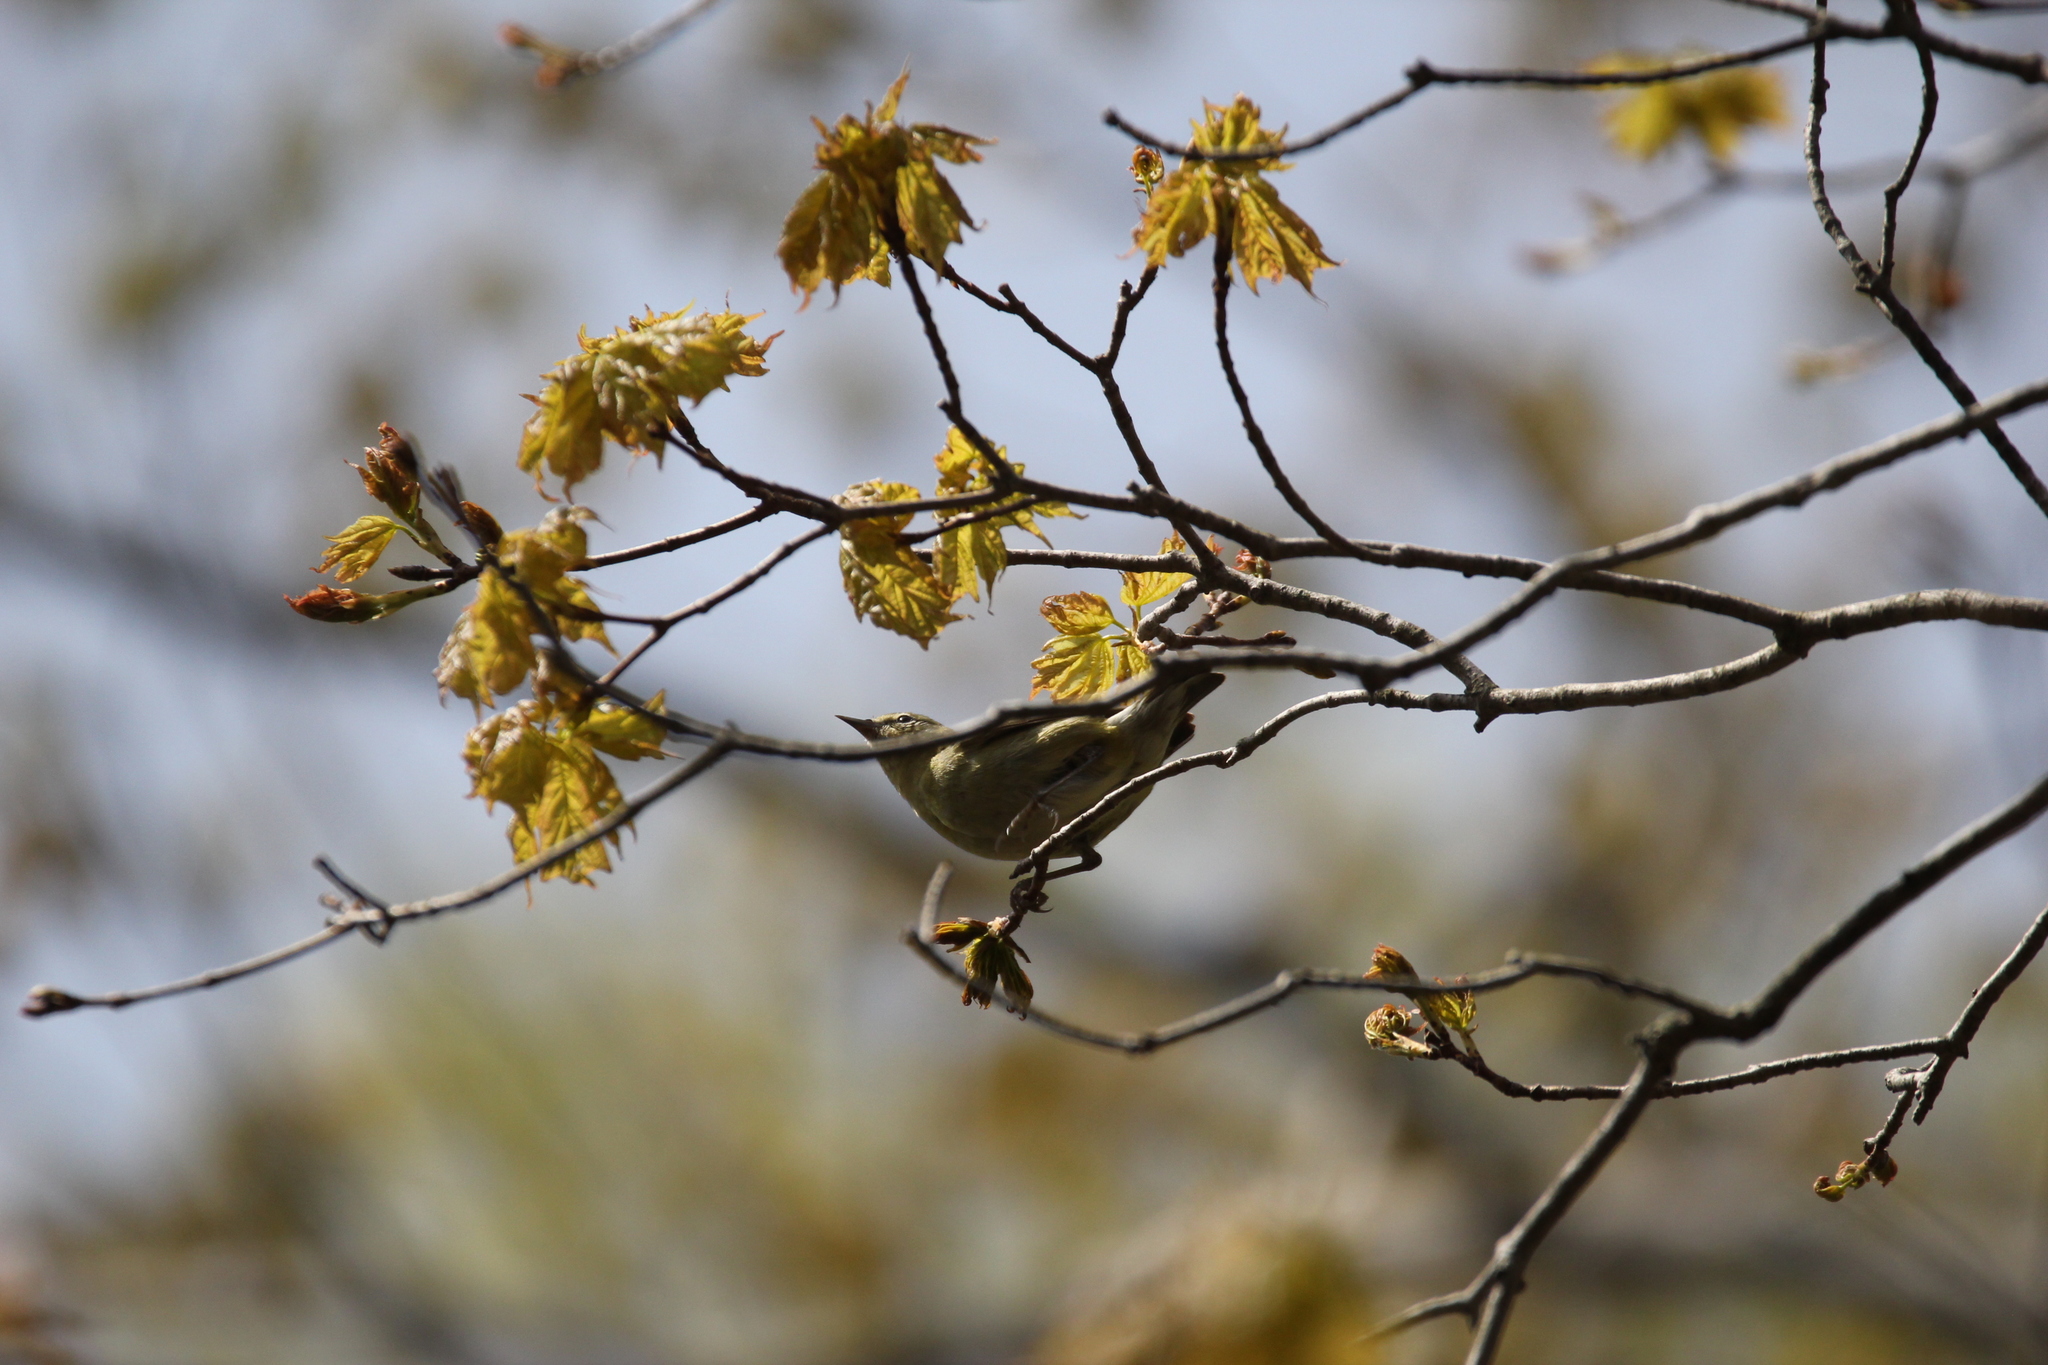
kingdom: Animalia
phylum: Chordata
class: Aves
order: Passeriformes
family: Parulidae
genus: Leiothlypis
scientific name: Leiothlypis peregrina
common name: Tennessee warbler
